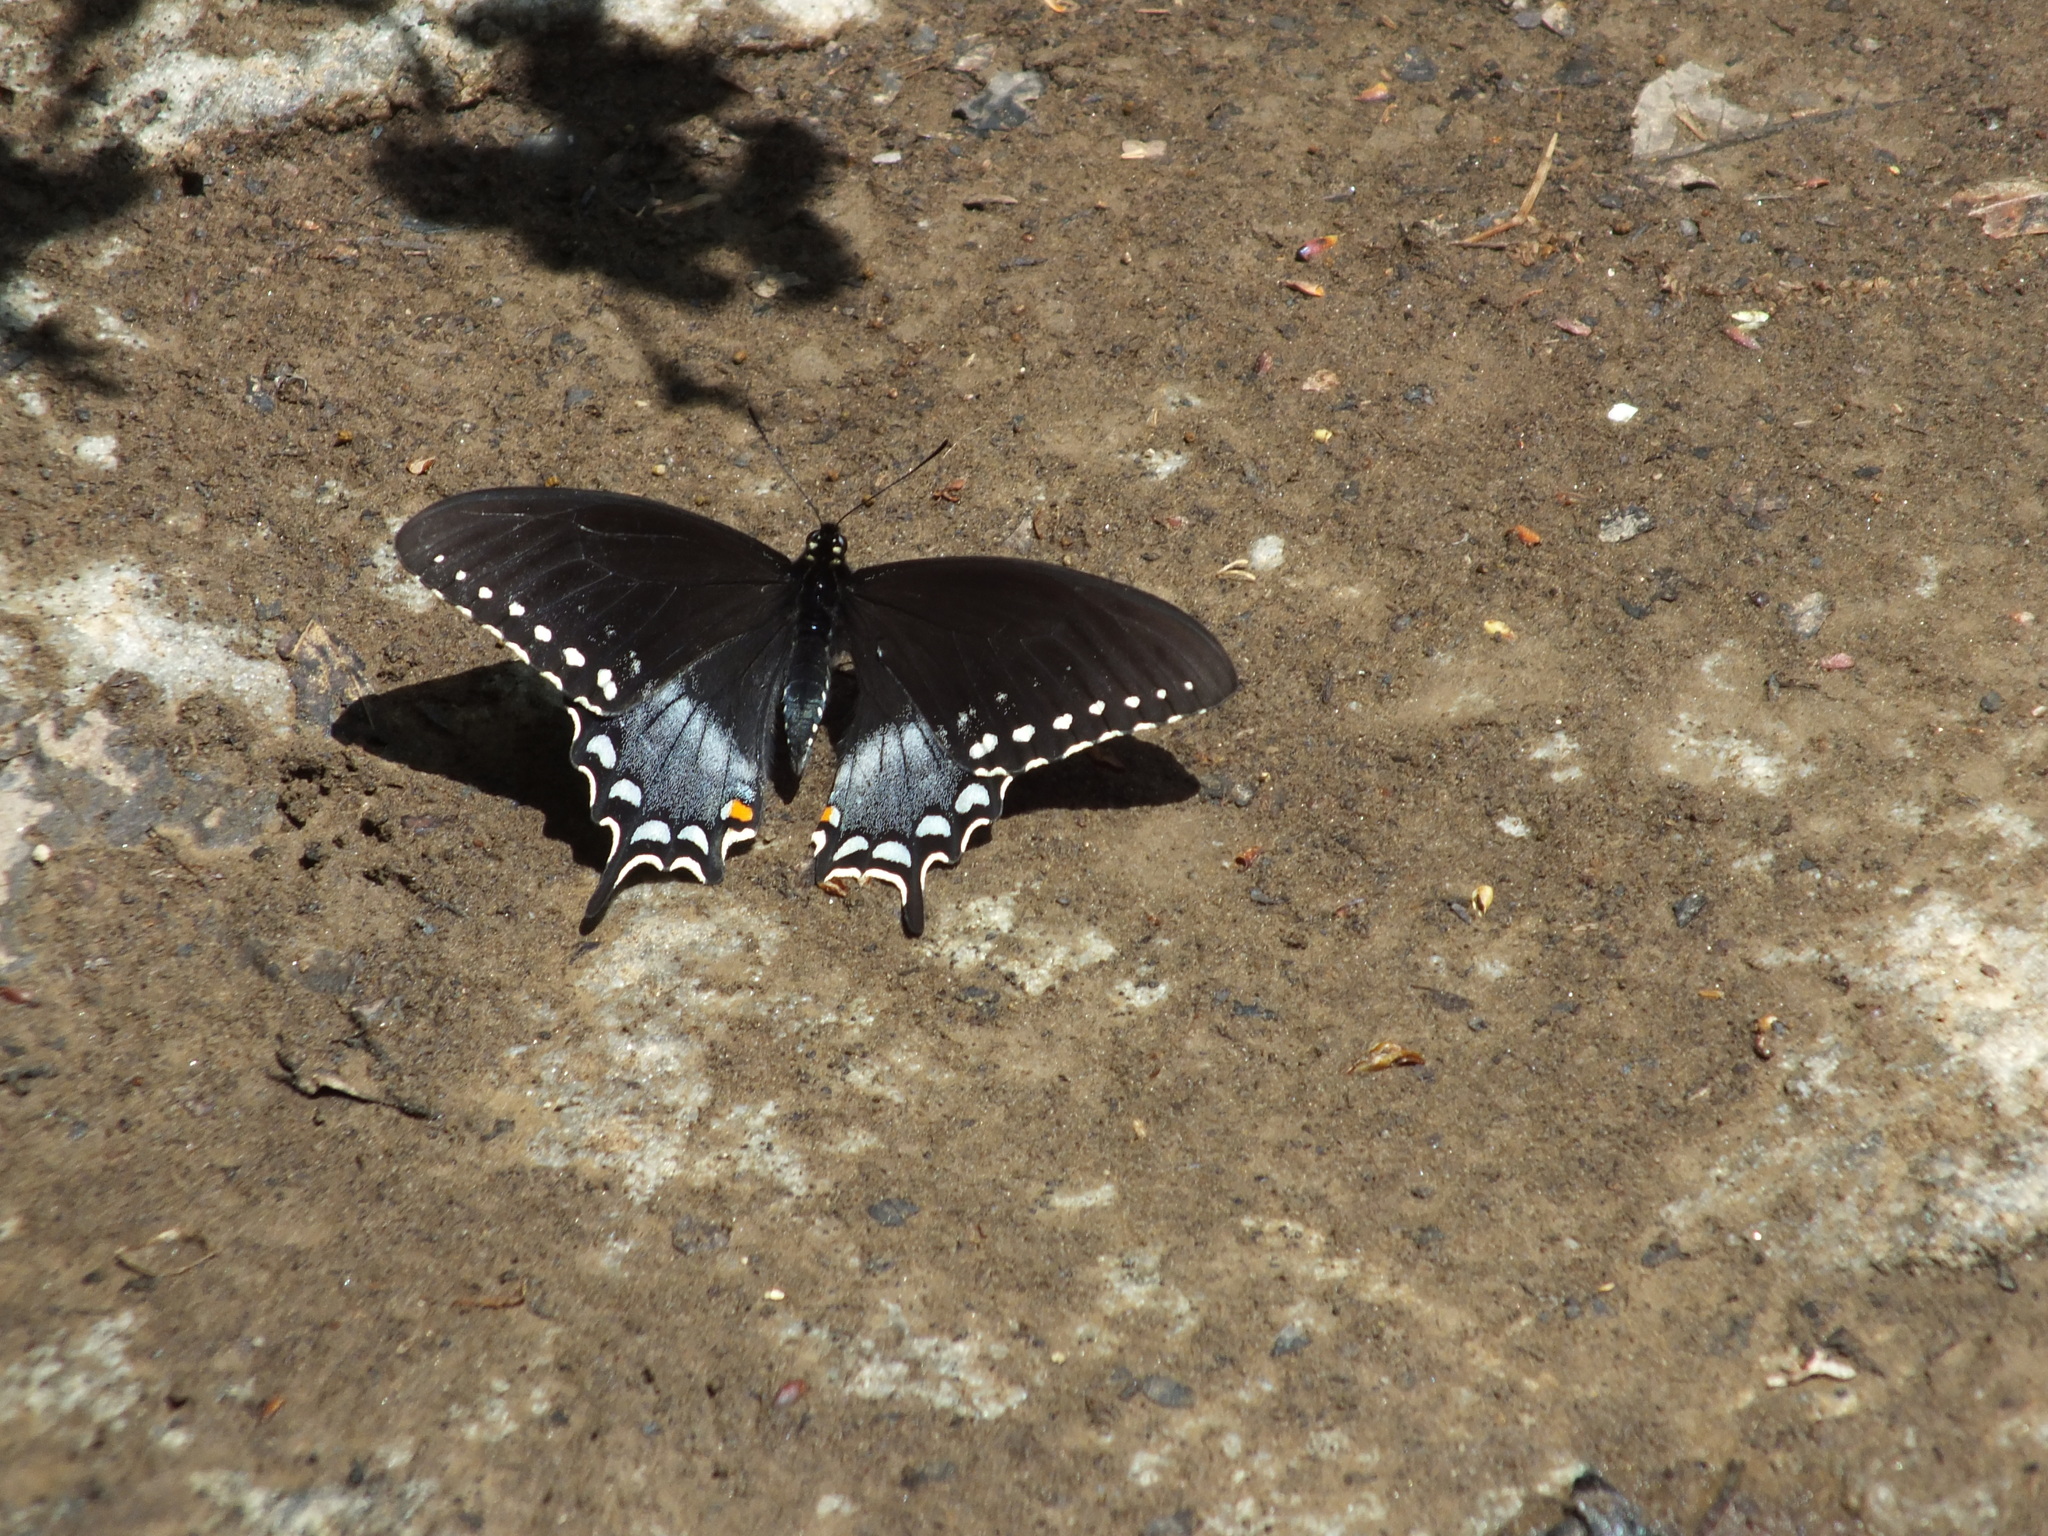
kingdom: Animalia
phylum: Arthropoda
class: Insecta
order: Lepidoptera
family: Papilionidae
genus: Papilio
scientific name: Papilio troilus
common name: Spicebush swallowtail
